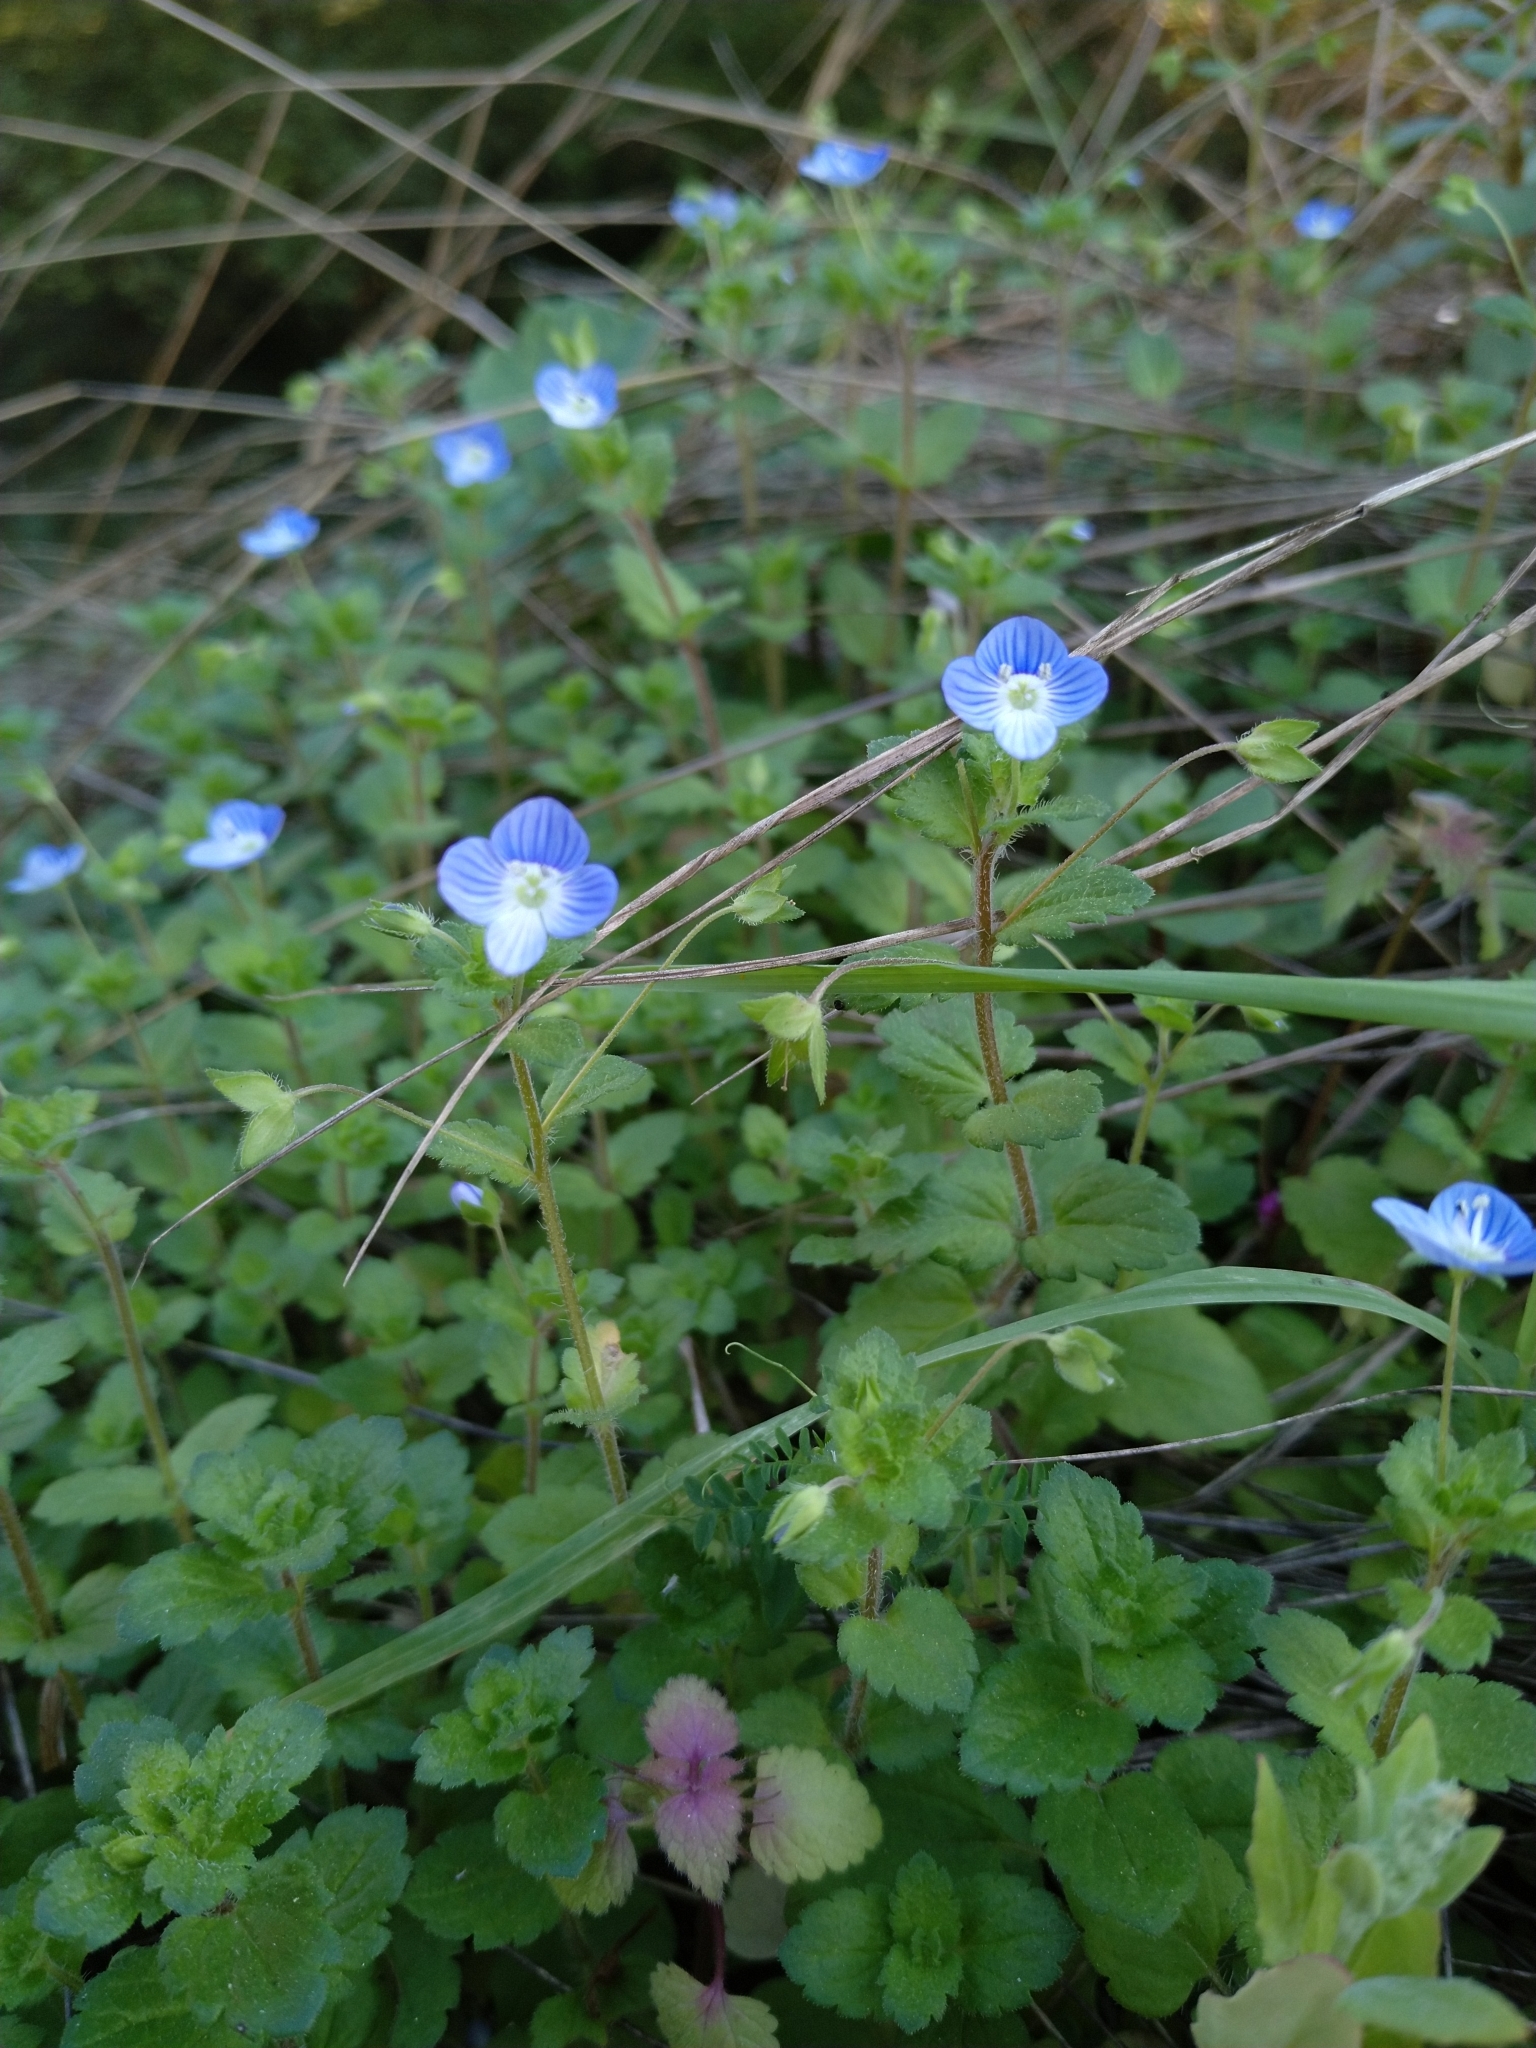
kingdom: Plantae
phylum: Tracheophyta
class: Magnoliopsida
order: Lamiales
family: Plantaginaceae
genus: Veronica
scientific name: Veronica persica
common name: Common field-speedwell
